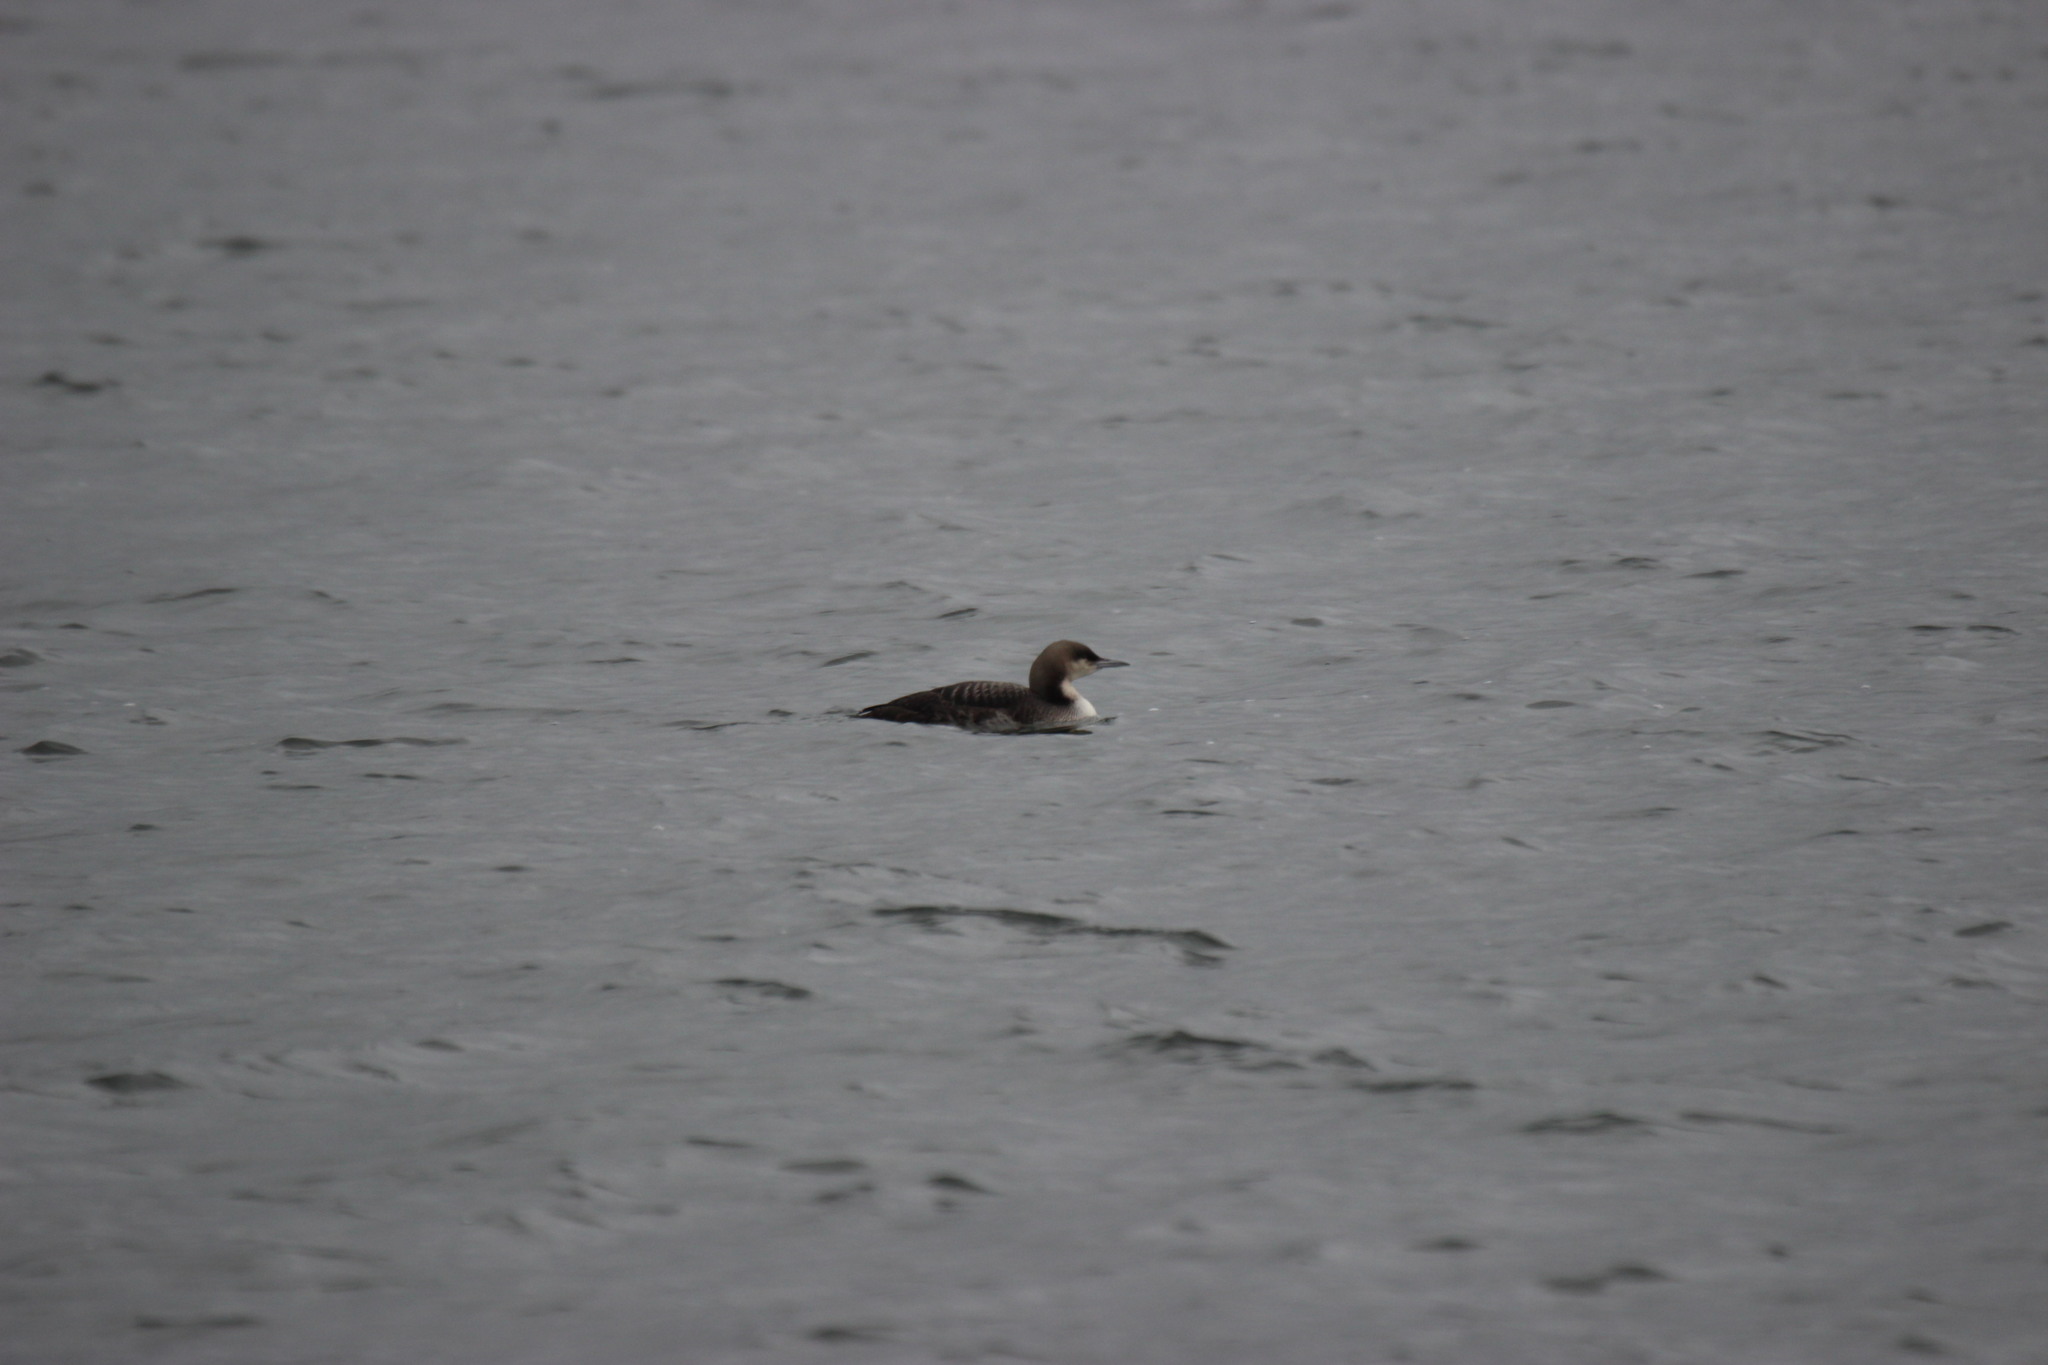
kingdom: Animalia
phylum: Chordata
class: Aves
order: Gaviiformes
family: Gaviidae
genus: Gavia
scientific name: Gavia pacifica
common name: Pacific loon
